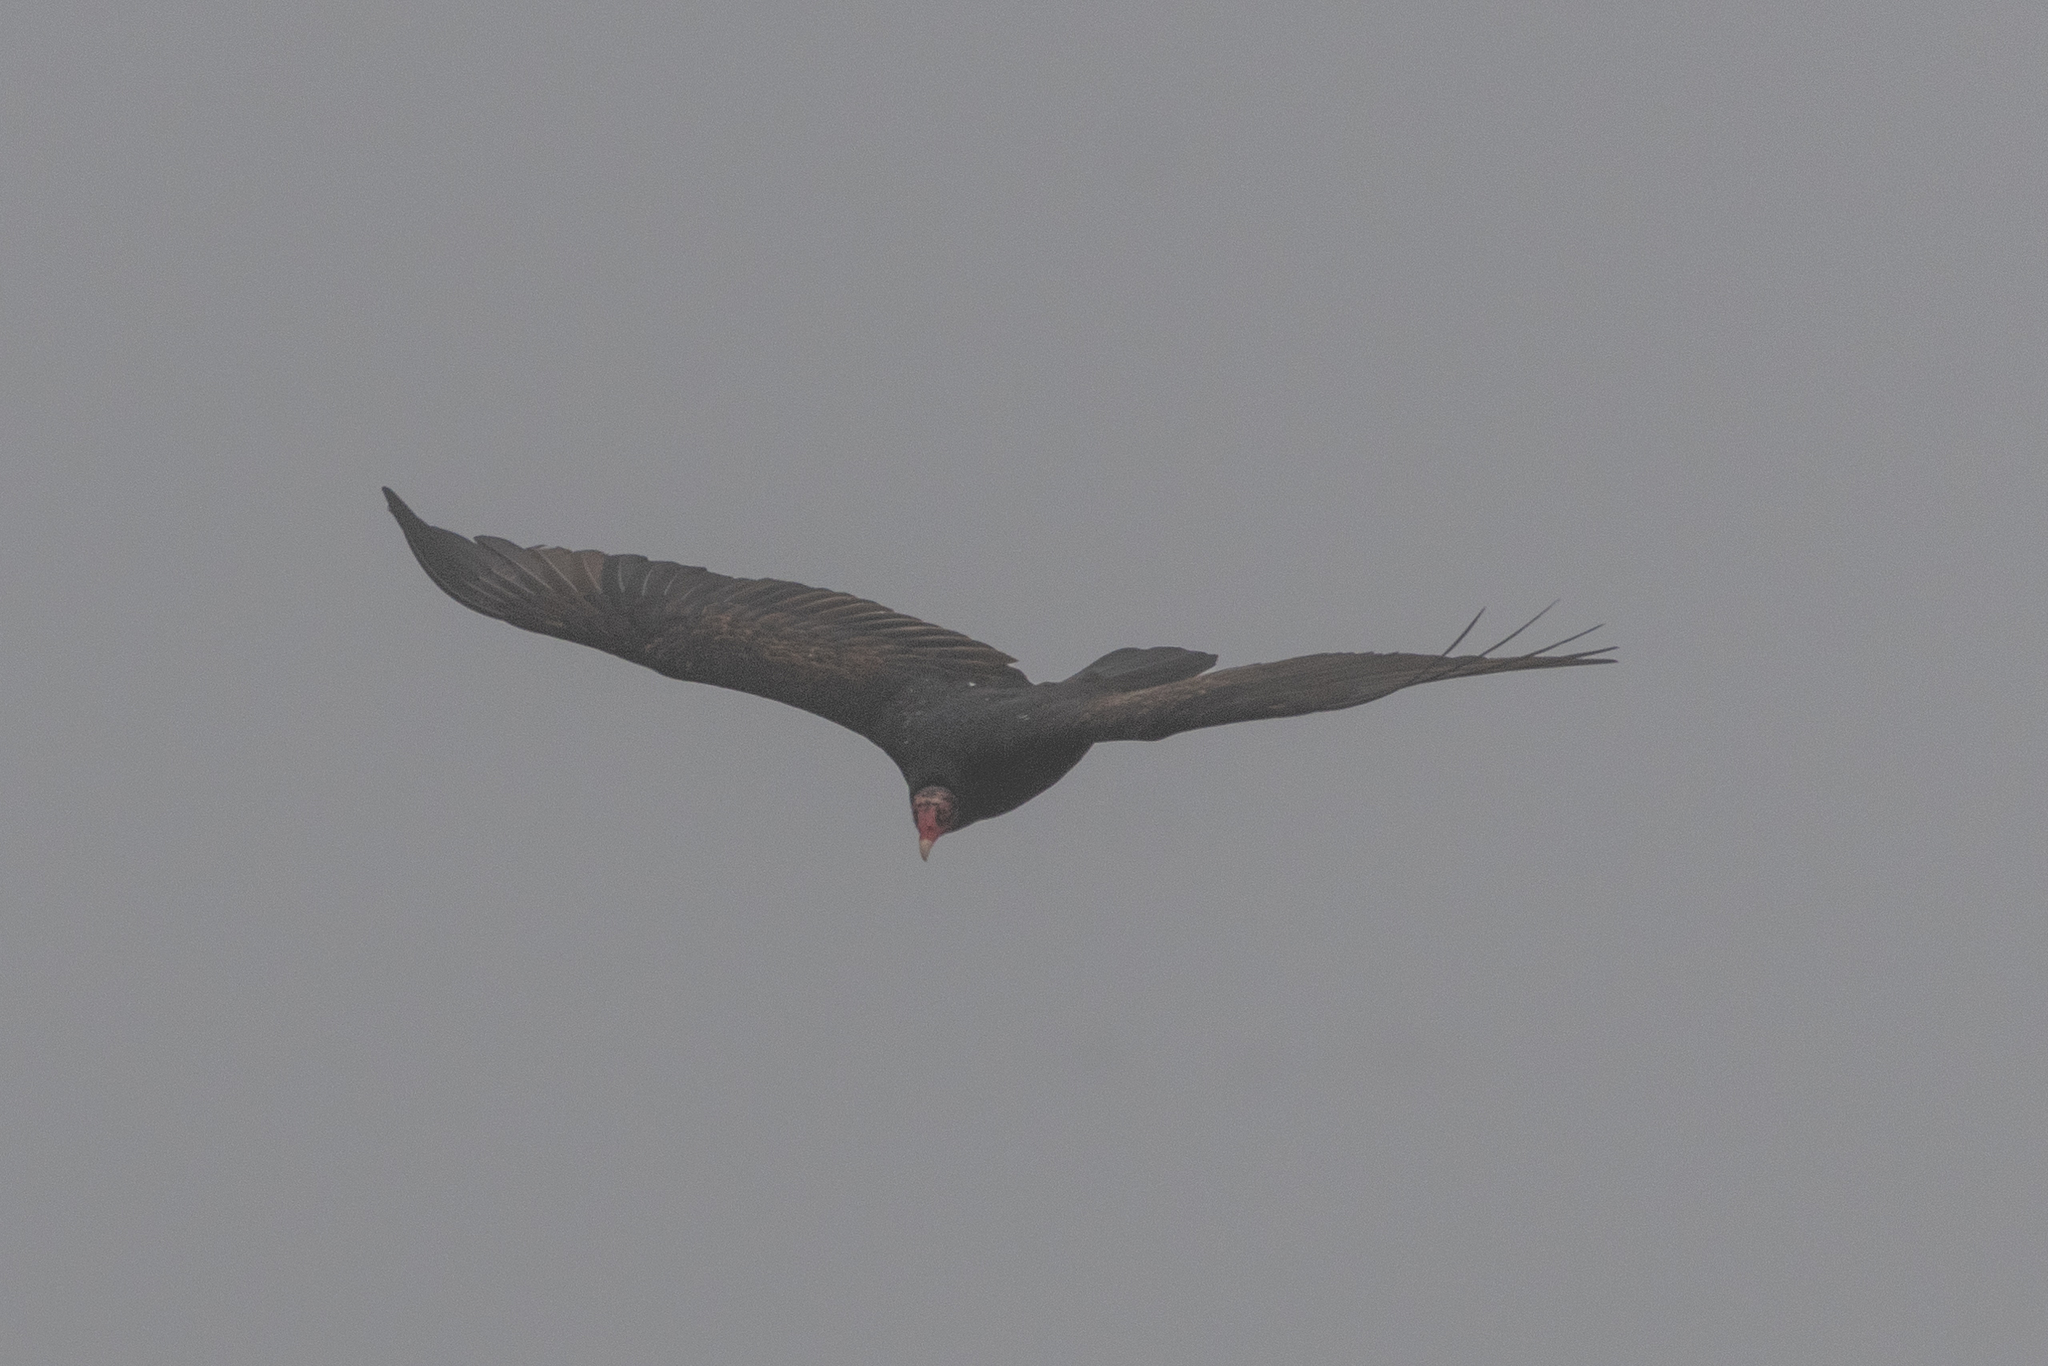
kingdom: Animalia
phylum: Chordata
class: Aves
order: Accipitriformes
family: Cathartidae
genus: Cathartes
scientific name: Cathartes aura
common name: Turkey vulture
